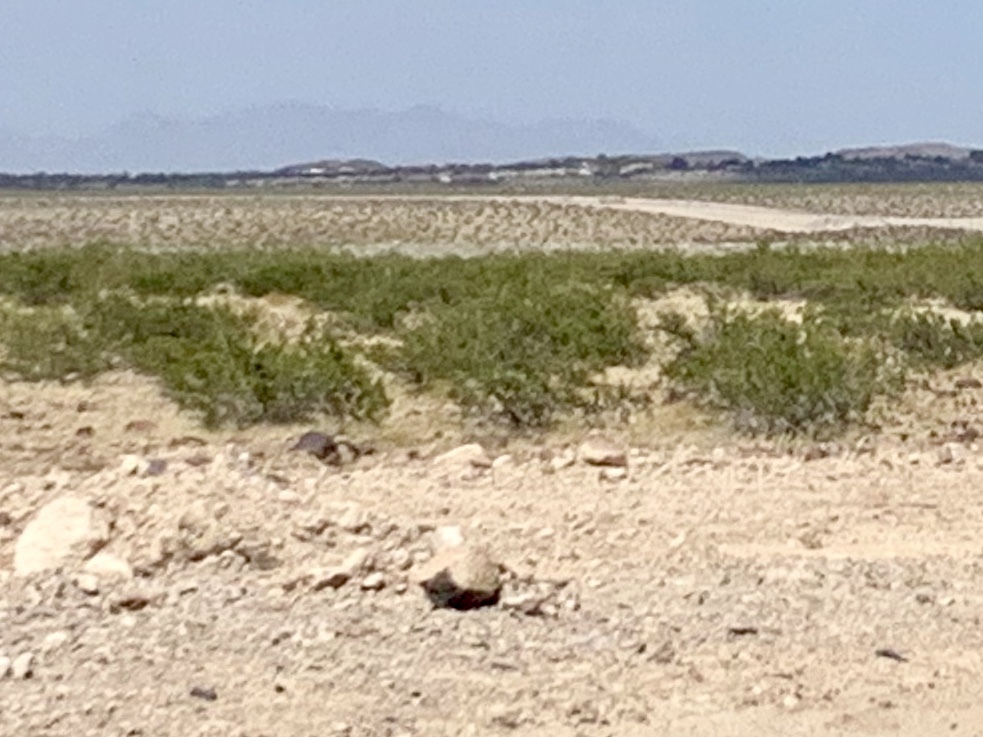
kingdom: Plantae
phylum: Tracheophyta
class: Magnoliopsida
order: Zygophyllales
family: Zygophyllaceae
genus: Larrea
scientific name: Larrea tridentata
